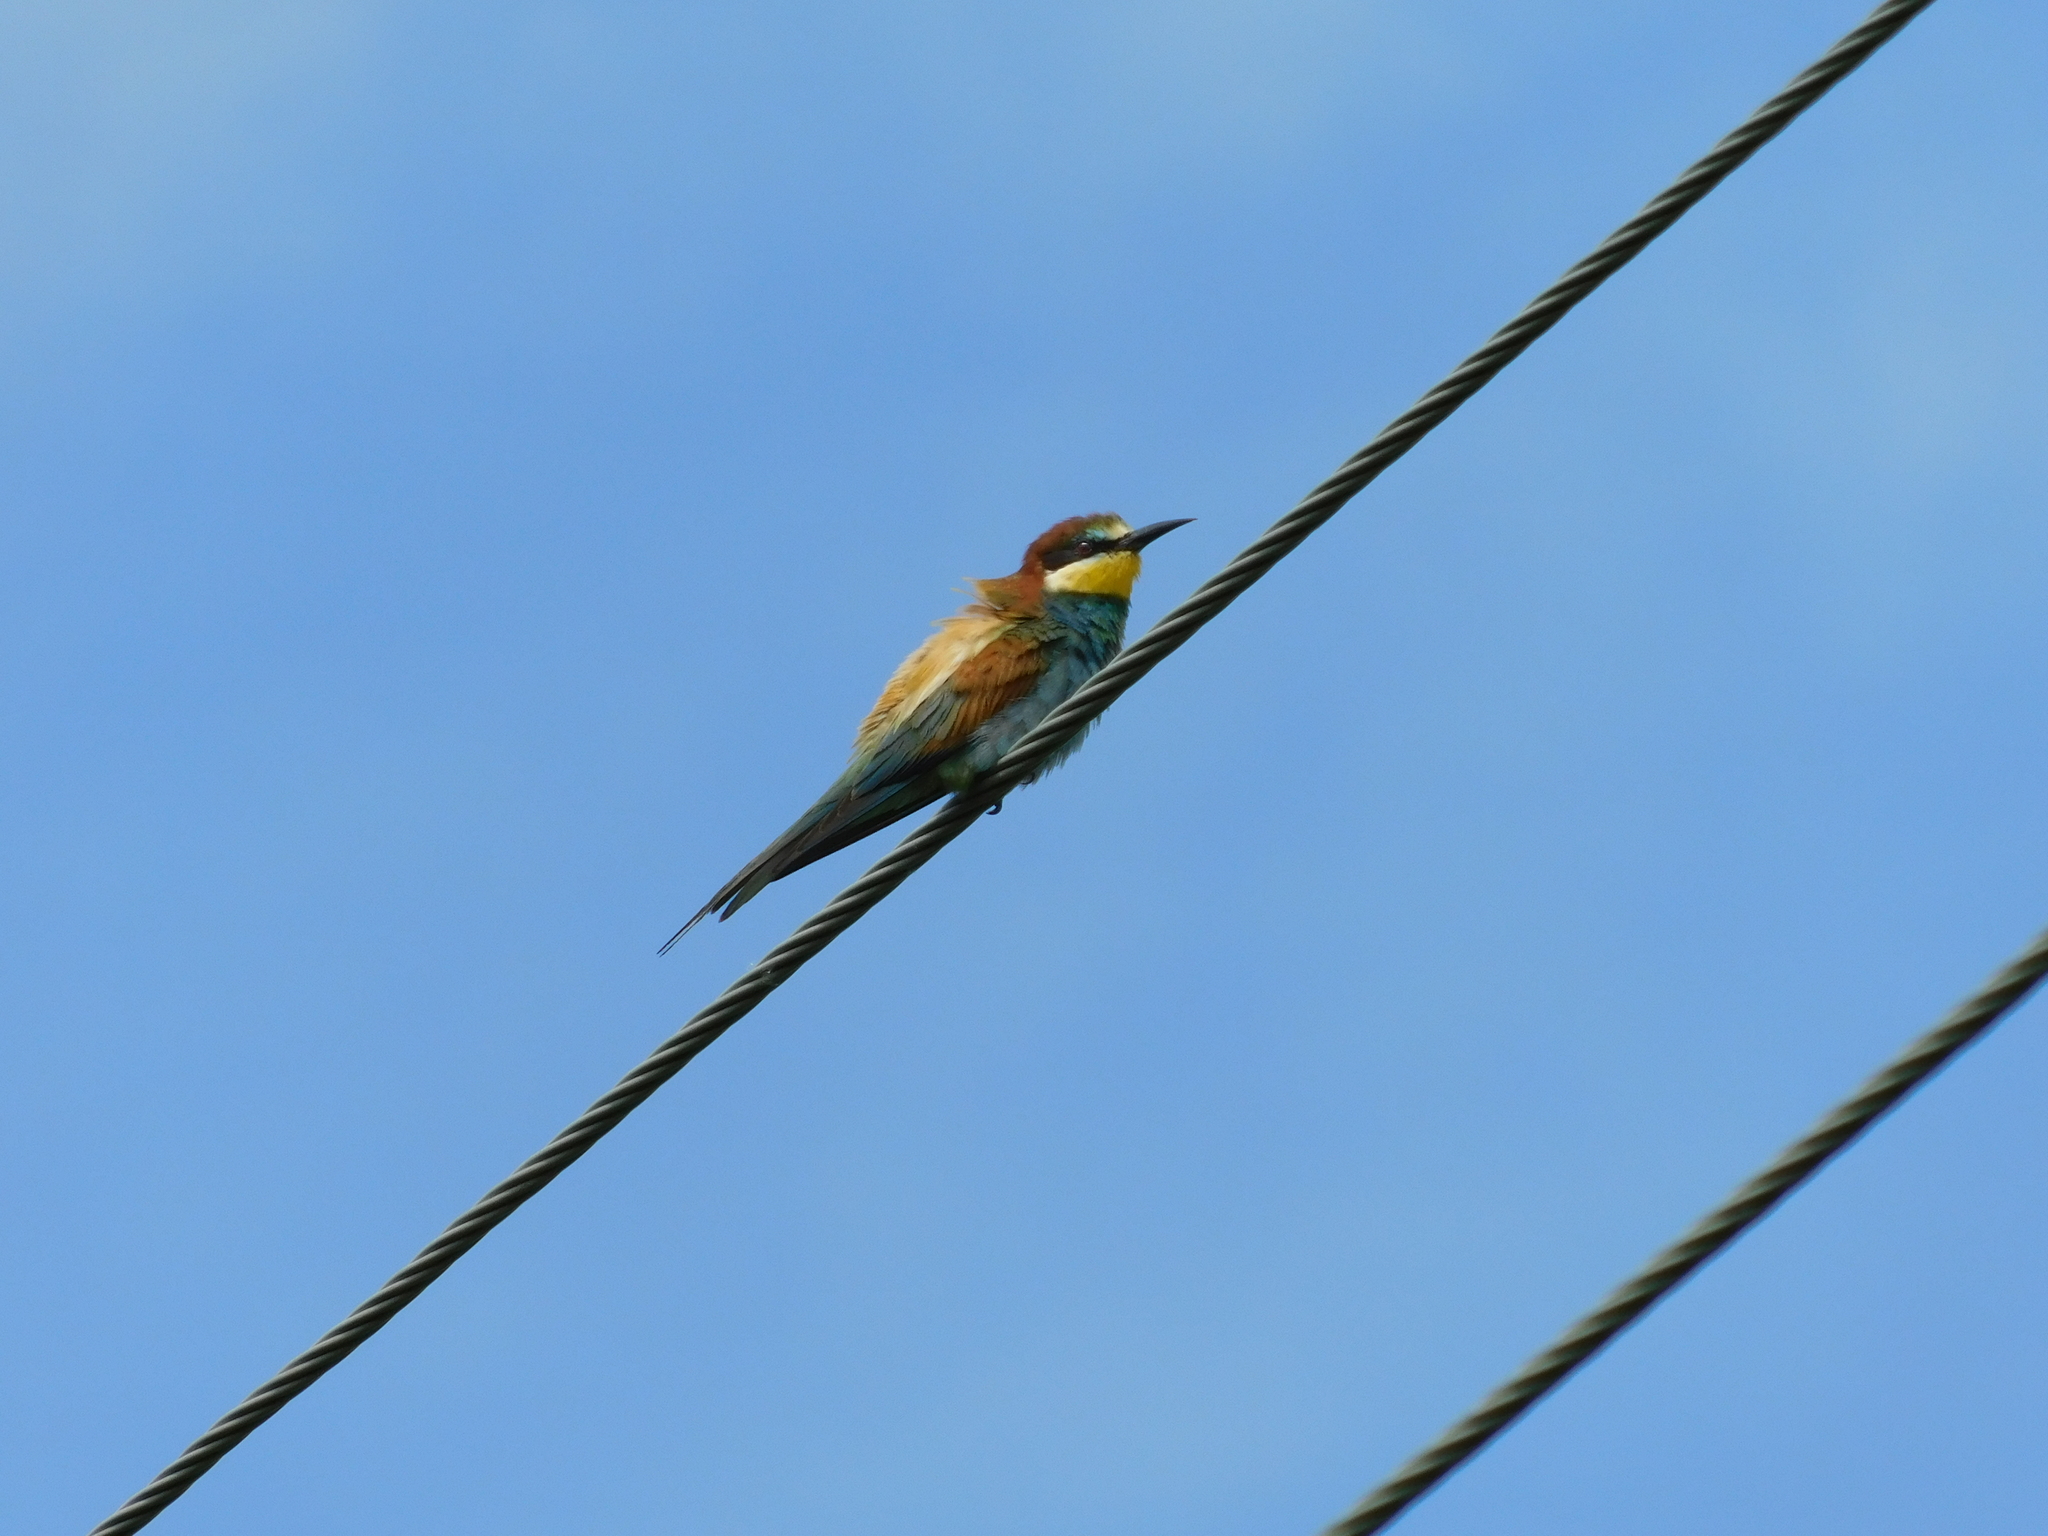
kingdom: Animalia
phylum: Chordata
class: Aves
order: Coraciiformes
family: Meropidae
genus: Merops
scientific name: Merops apiaster
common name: European bee-eater
